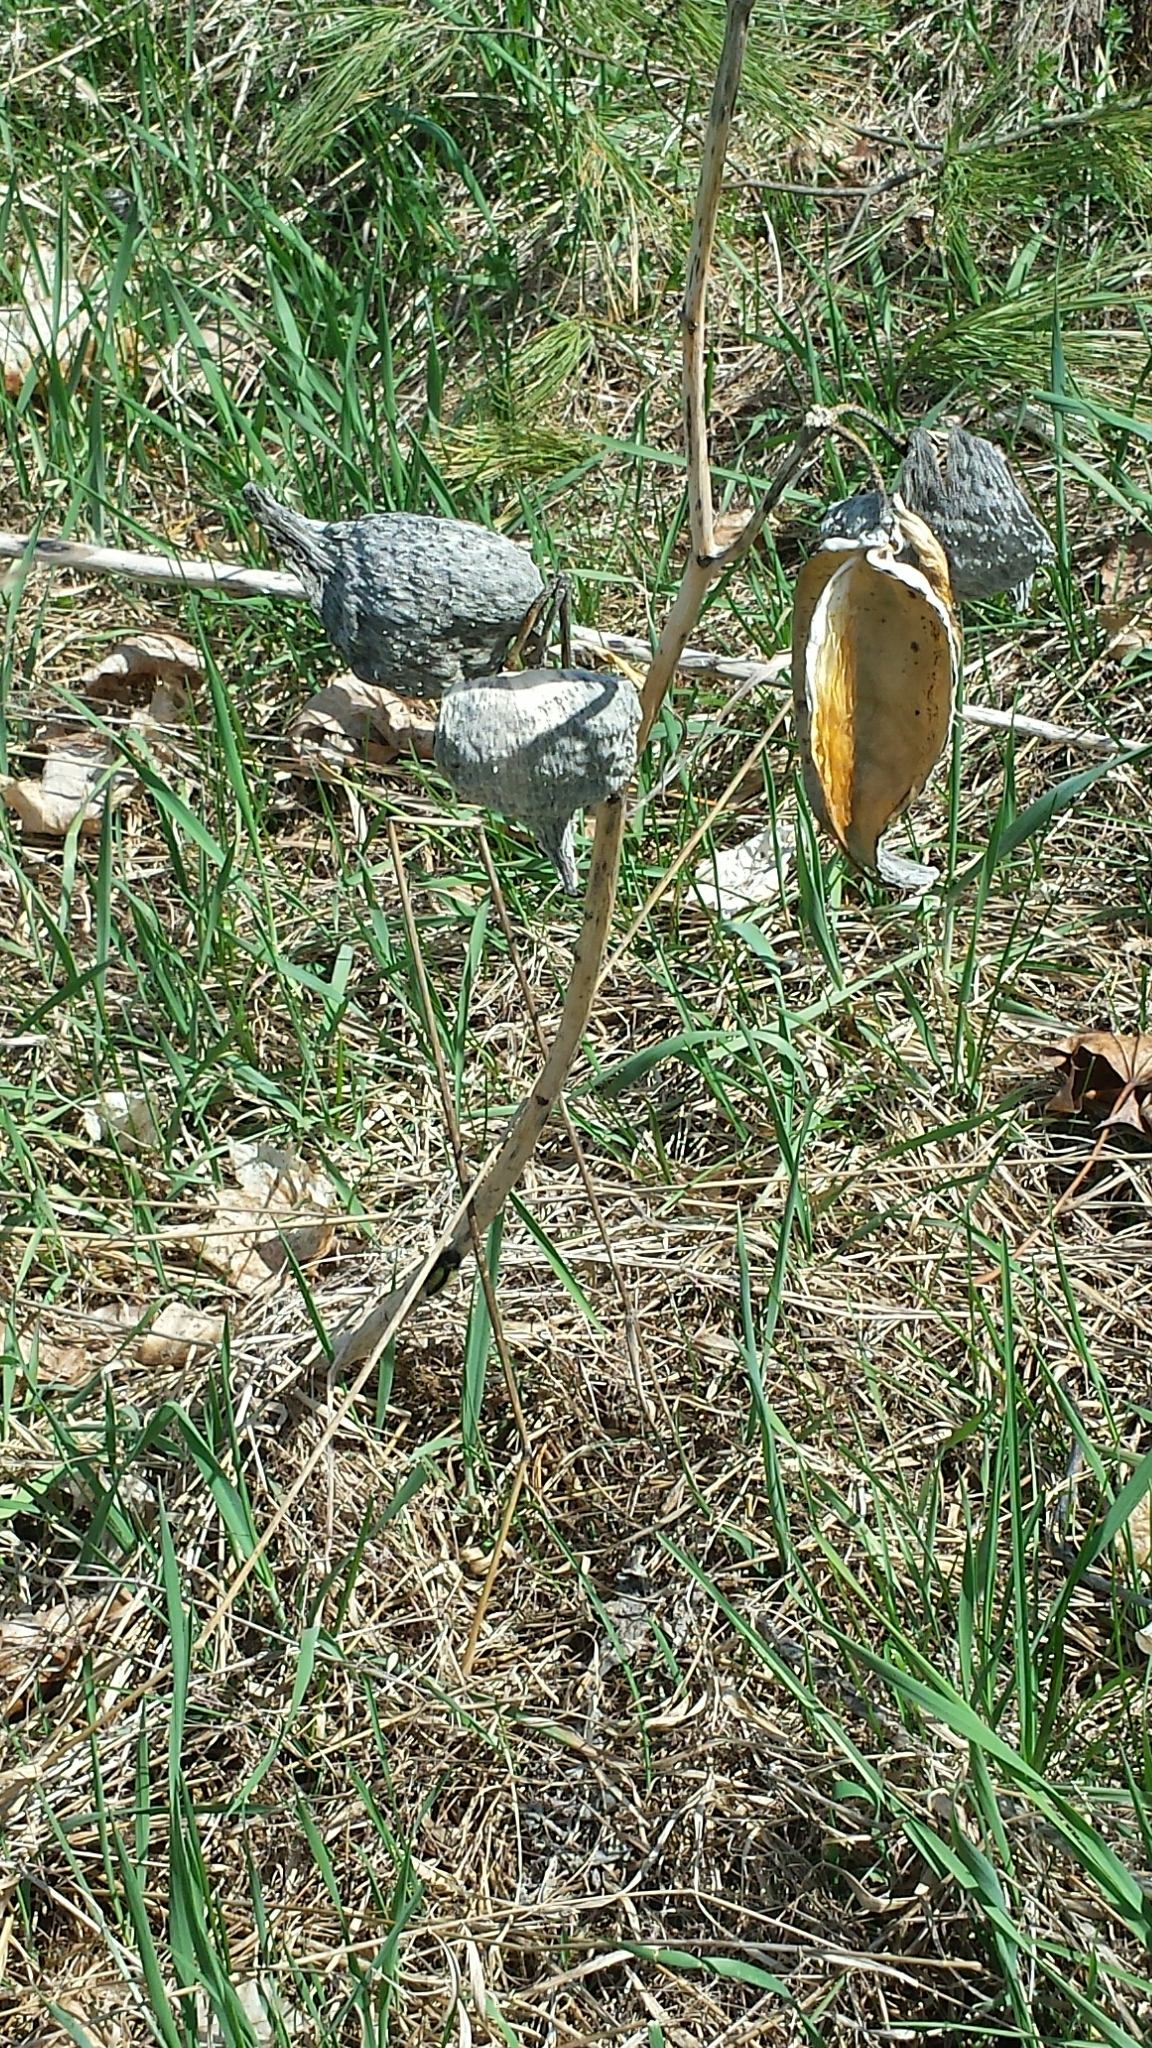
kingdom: Plantae
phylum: Tracheophyta
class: Magnoliopsida
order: Gentianales
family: Apocynaceae
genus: Asclepias
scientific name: Asclepias syriaca
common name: Common milkweed
